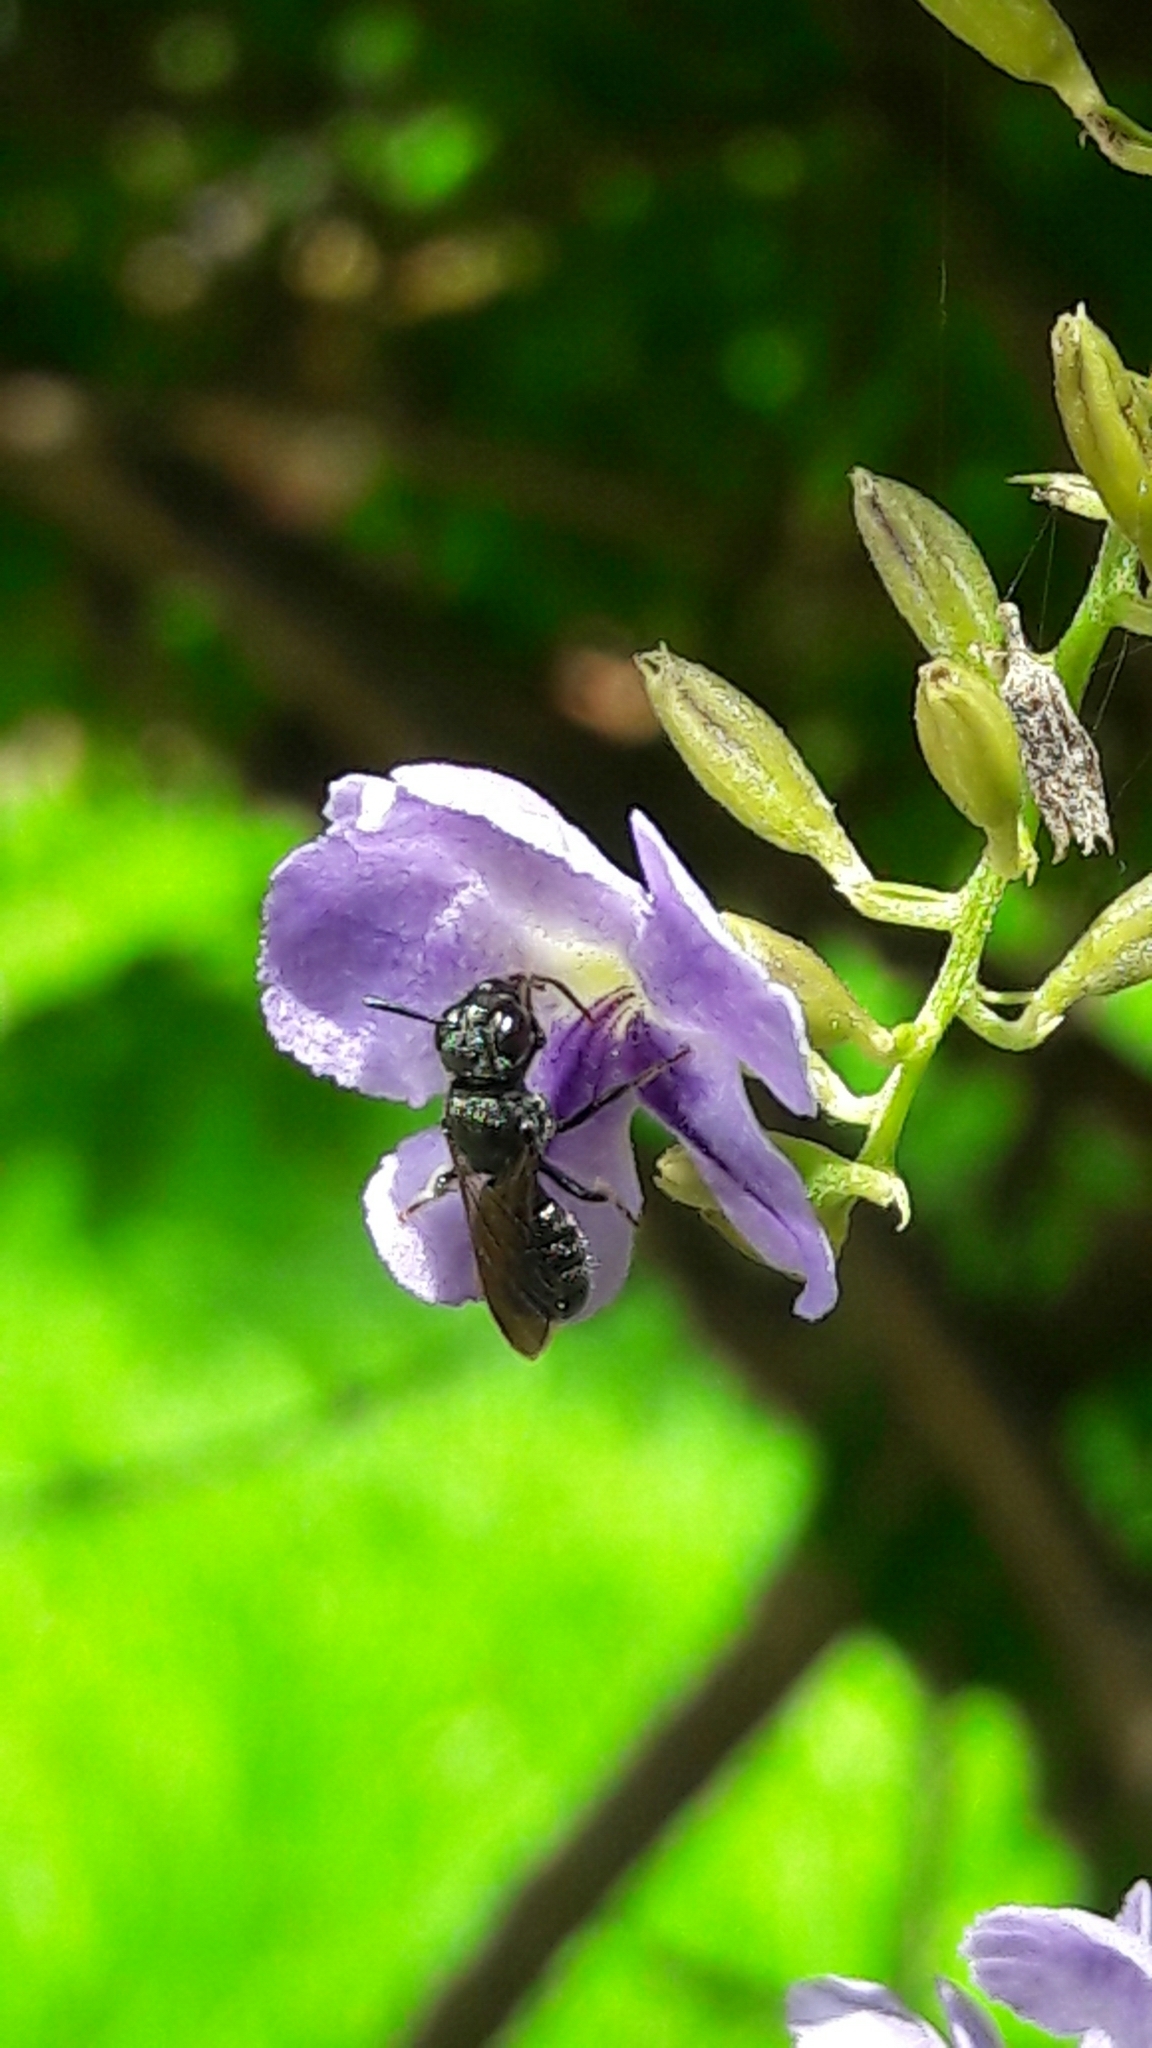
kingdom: Animalia
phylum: Arthropoda
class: Insecta
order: Hymenoptera
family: Apidae
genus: Ceratina
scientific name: Ceratina
